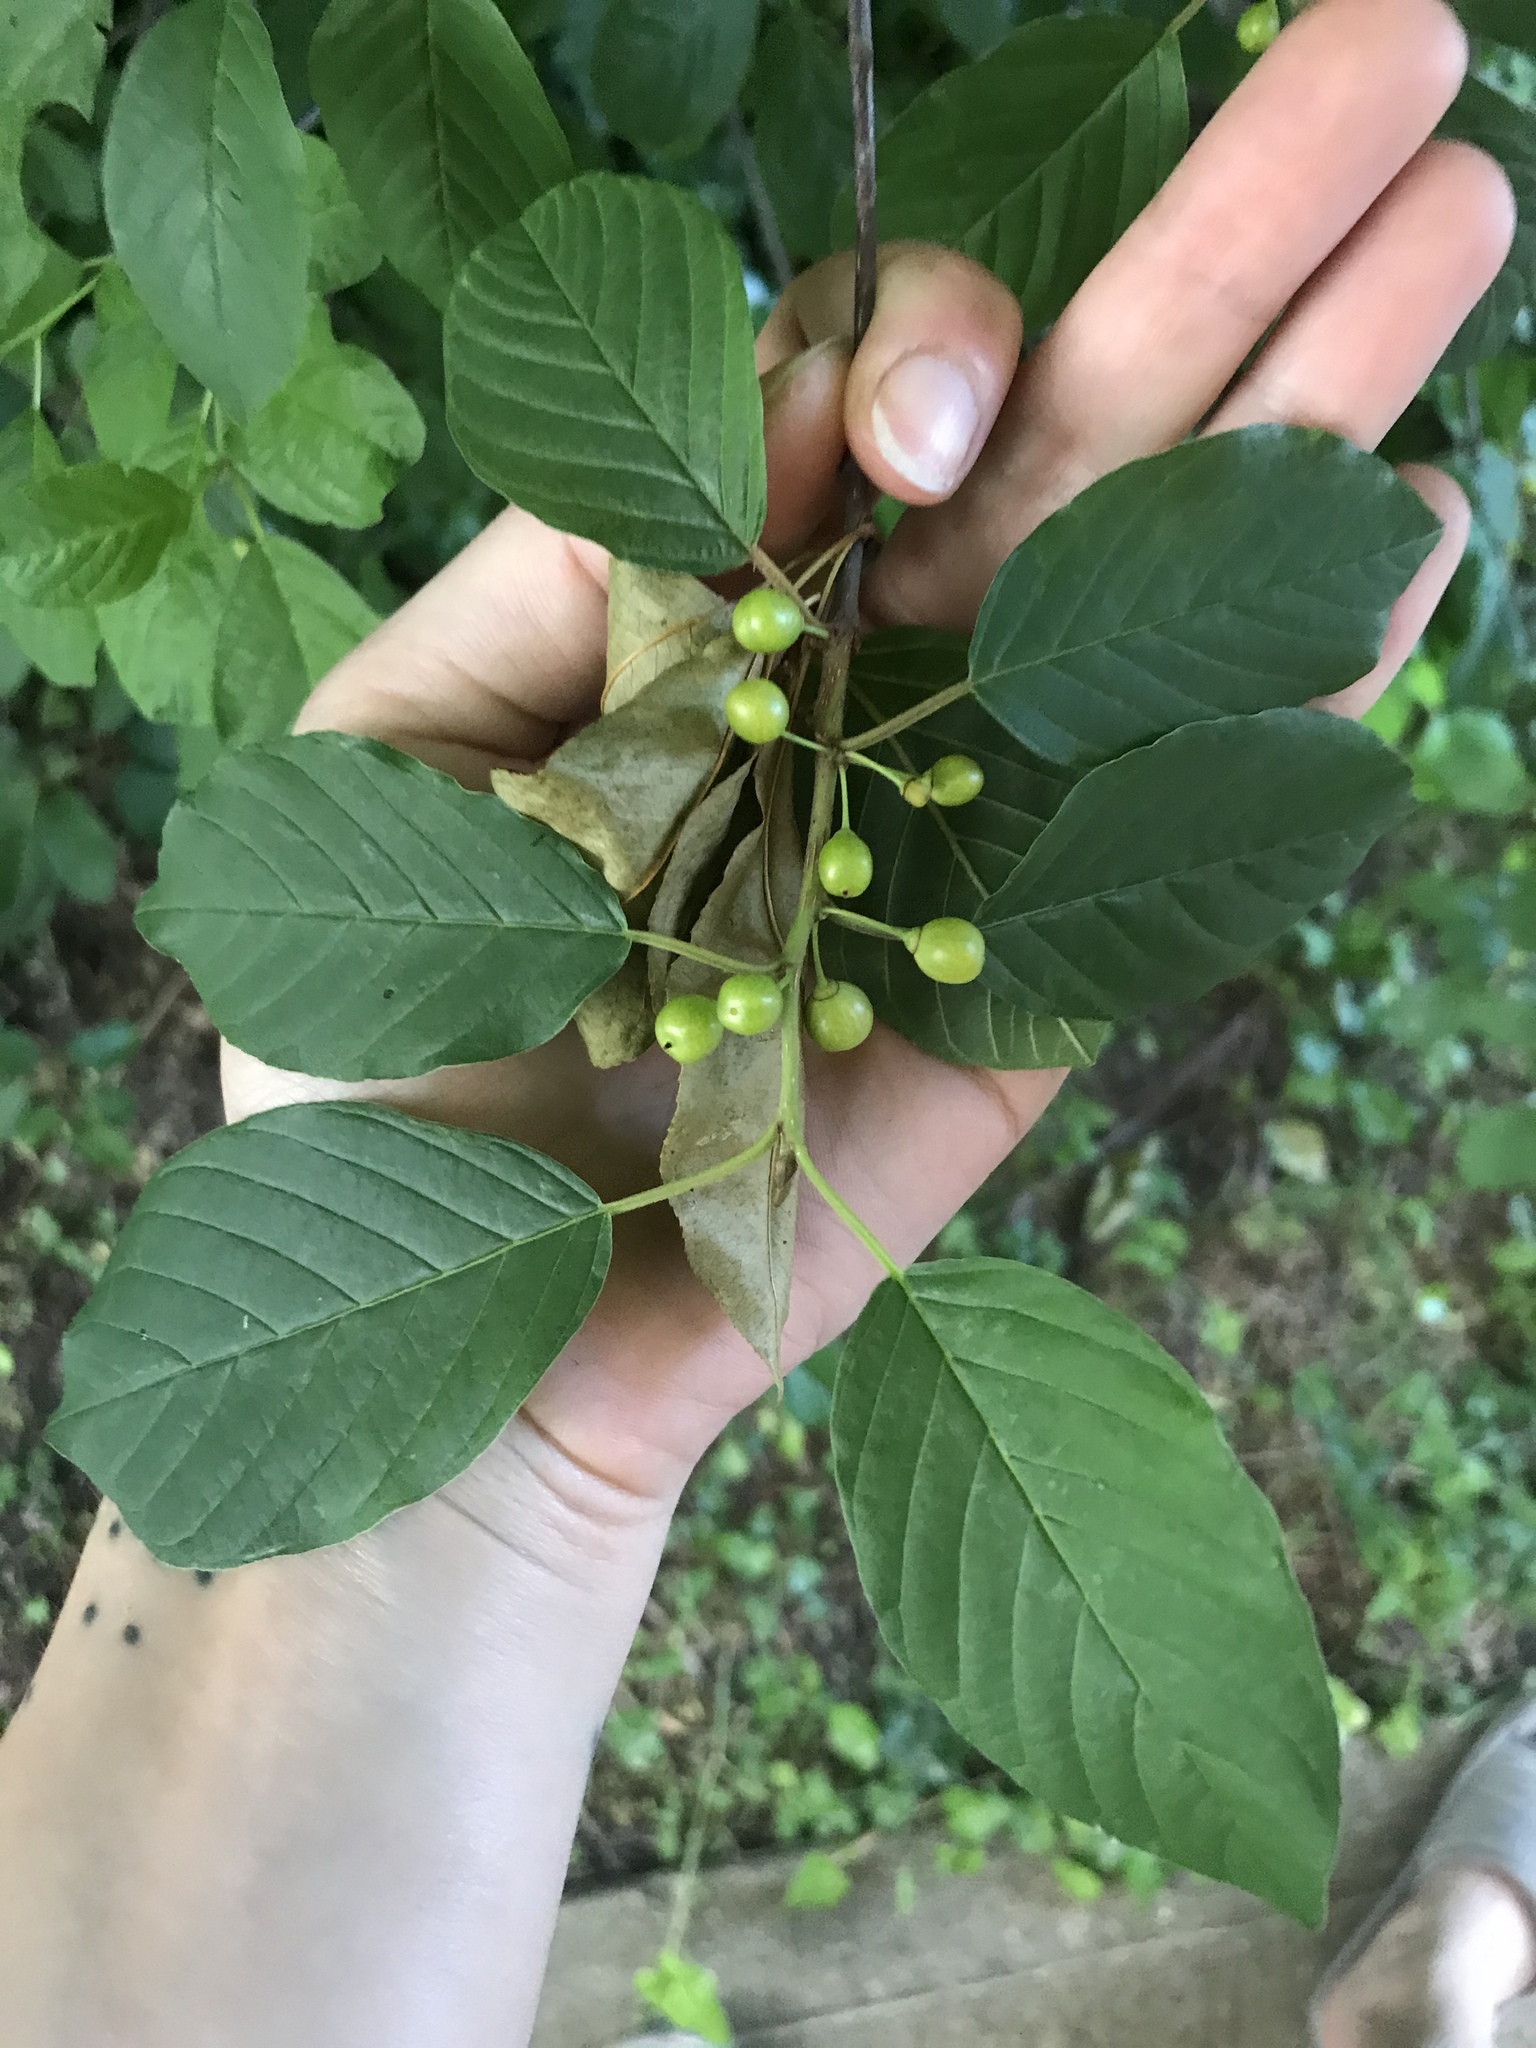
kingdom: Plantae
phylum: Tracheophyta
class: Magnoliopsida
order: Rosales
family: Rhamnaceae
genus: Frangula
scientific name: Frangula alnus
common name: Alder buckthorn
